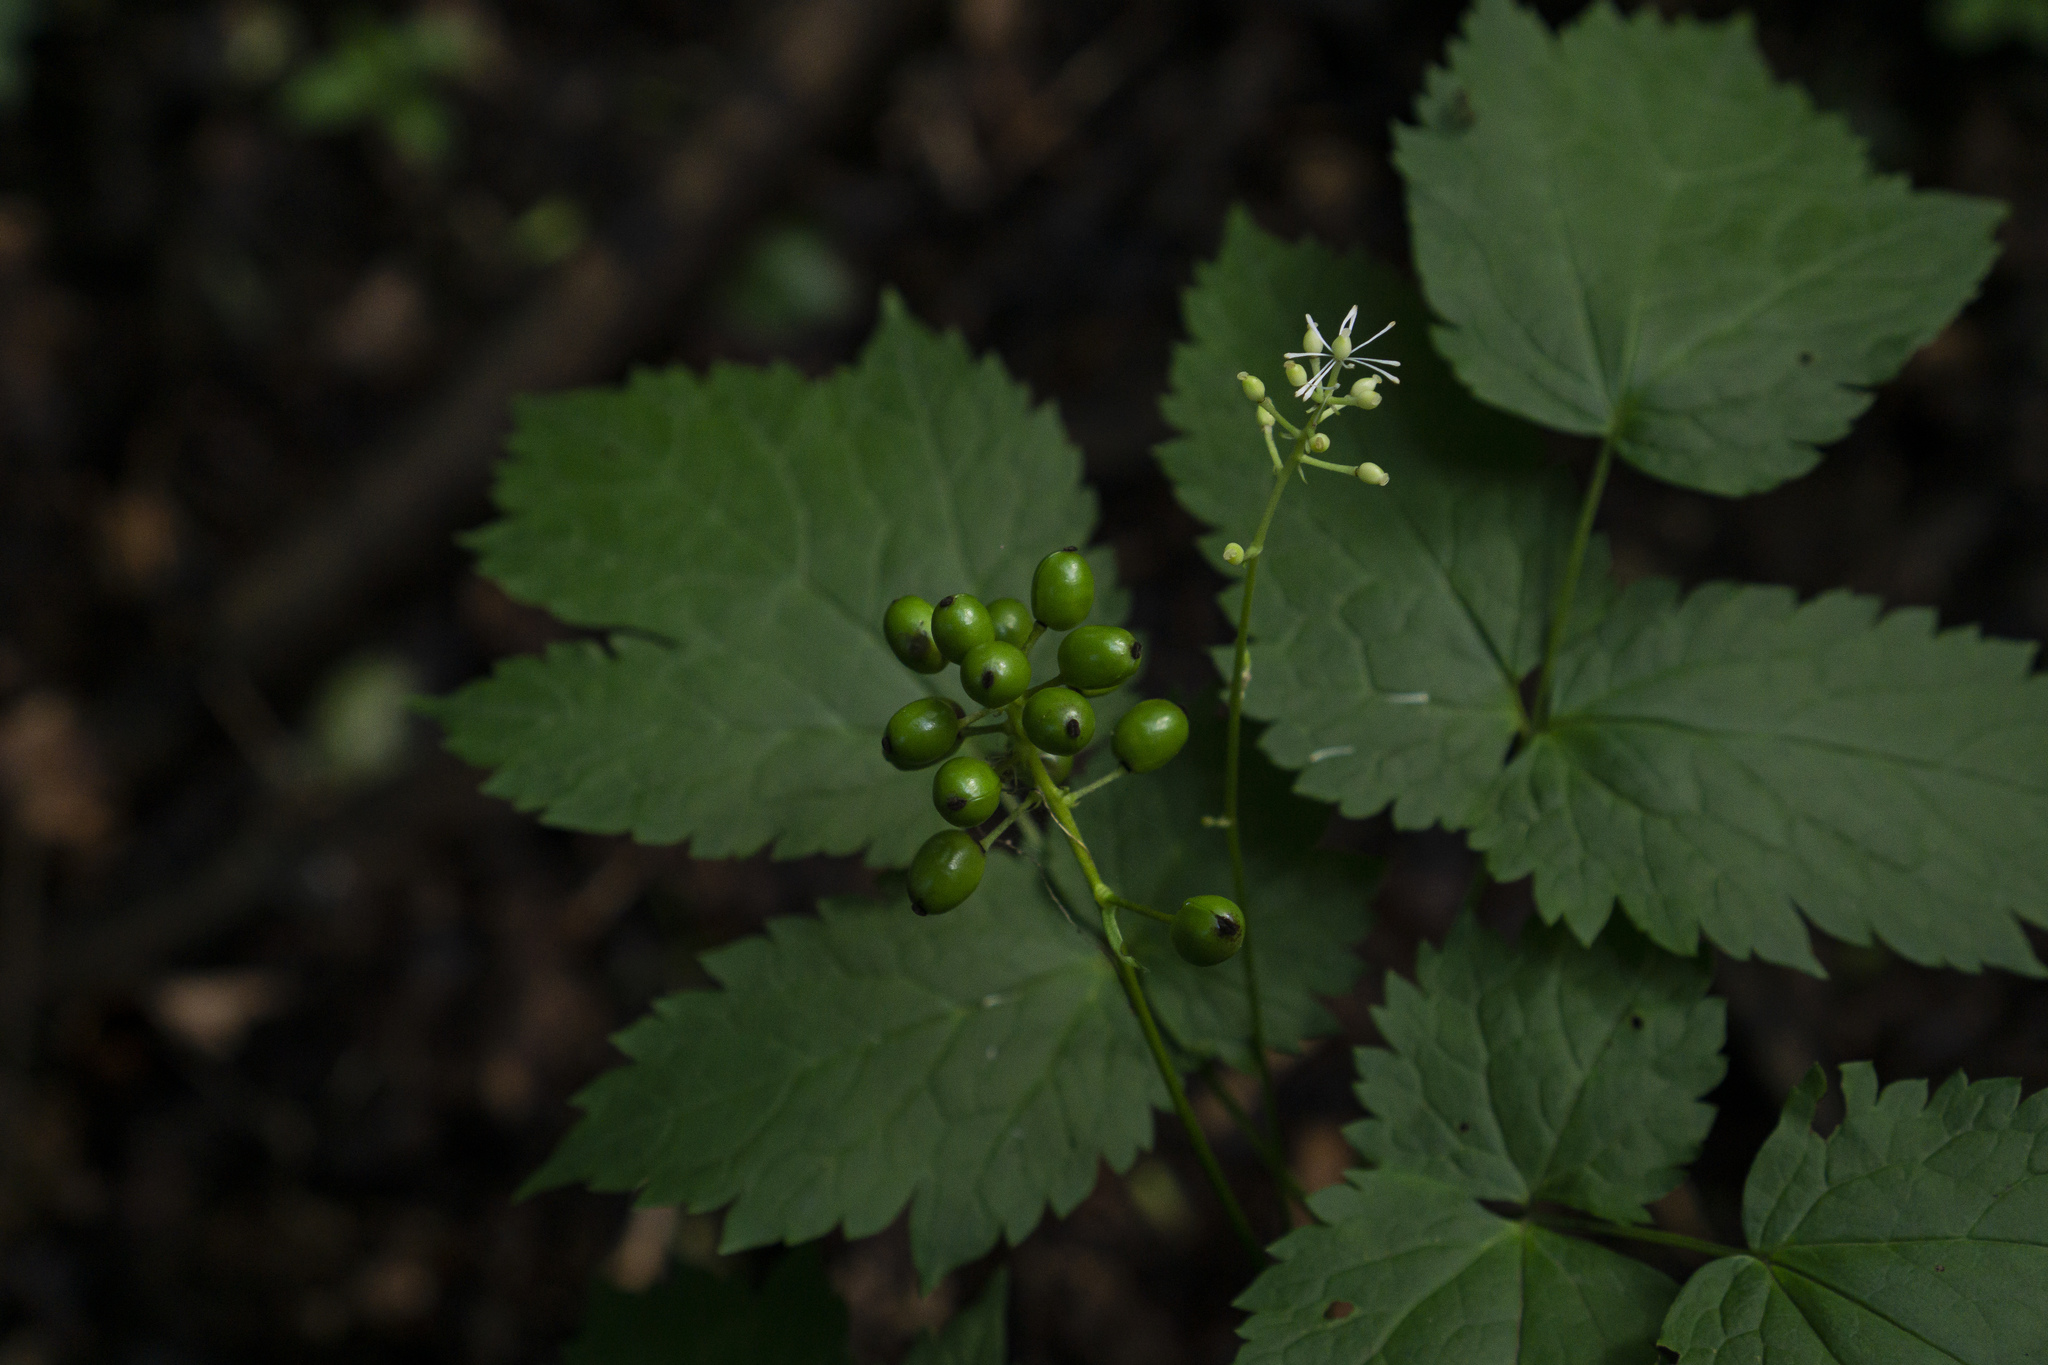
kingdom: Plantae
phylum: Tracheophyta
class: Magnoliopsida
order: Ranunculales
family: Ranunculaceae
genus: Actaea
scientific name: Actaea spicata
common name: Baneberry
